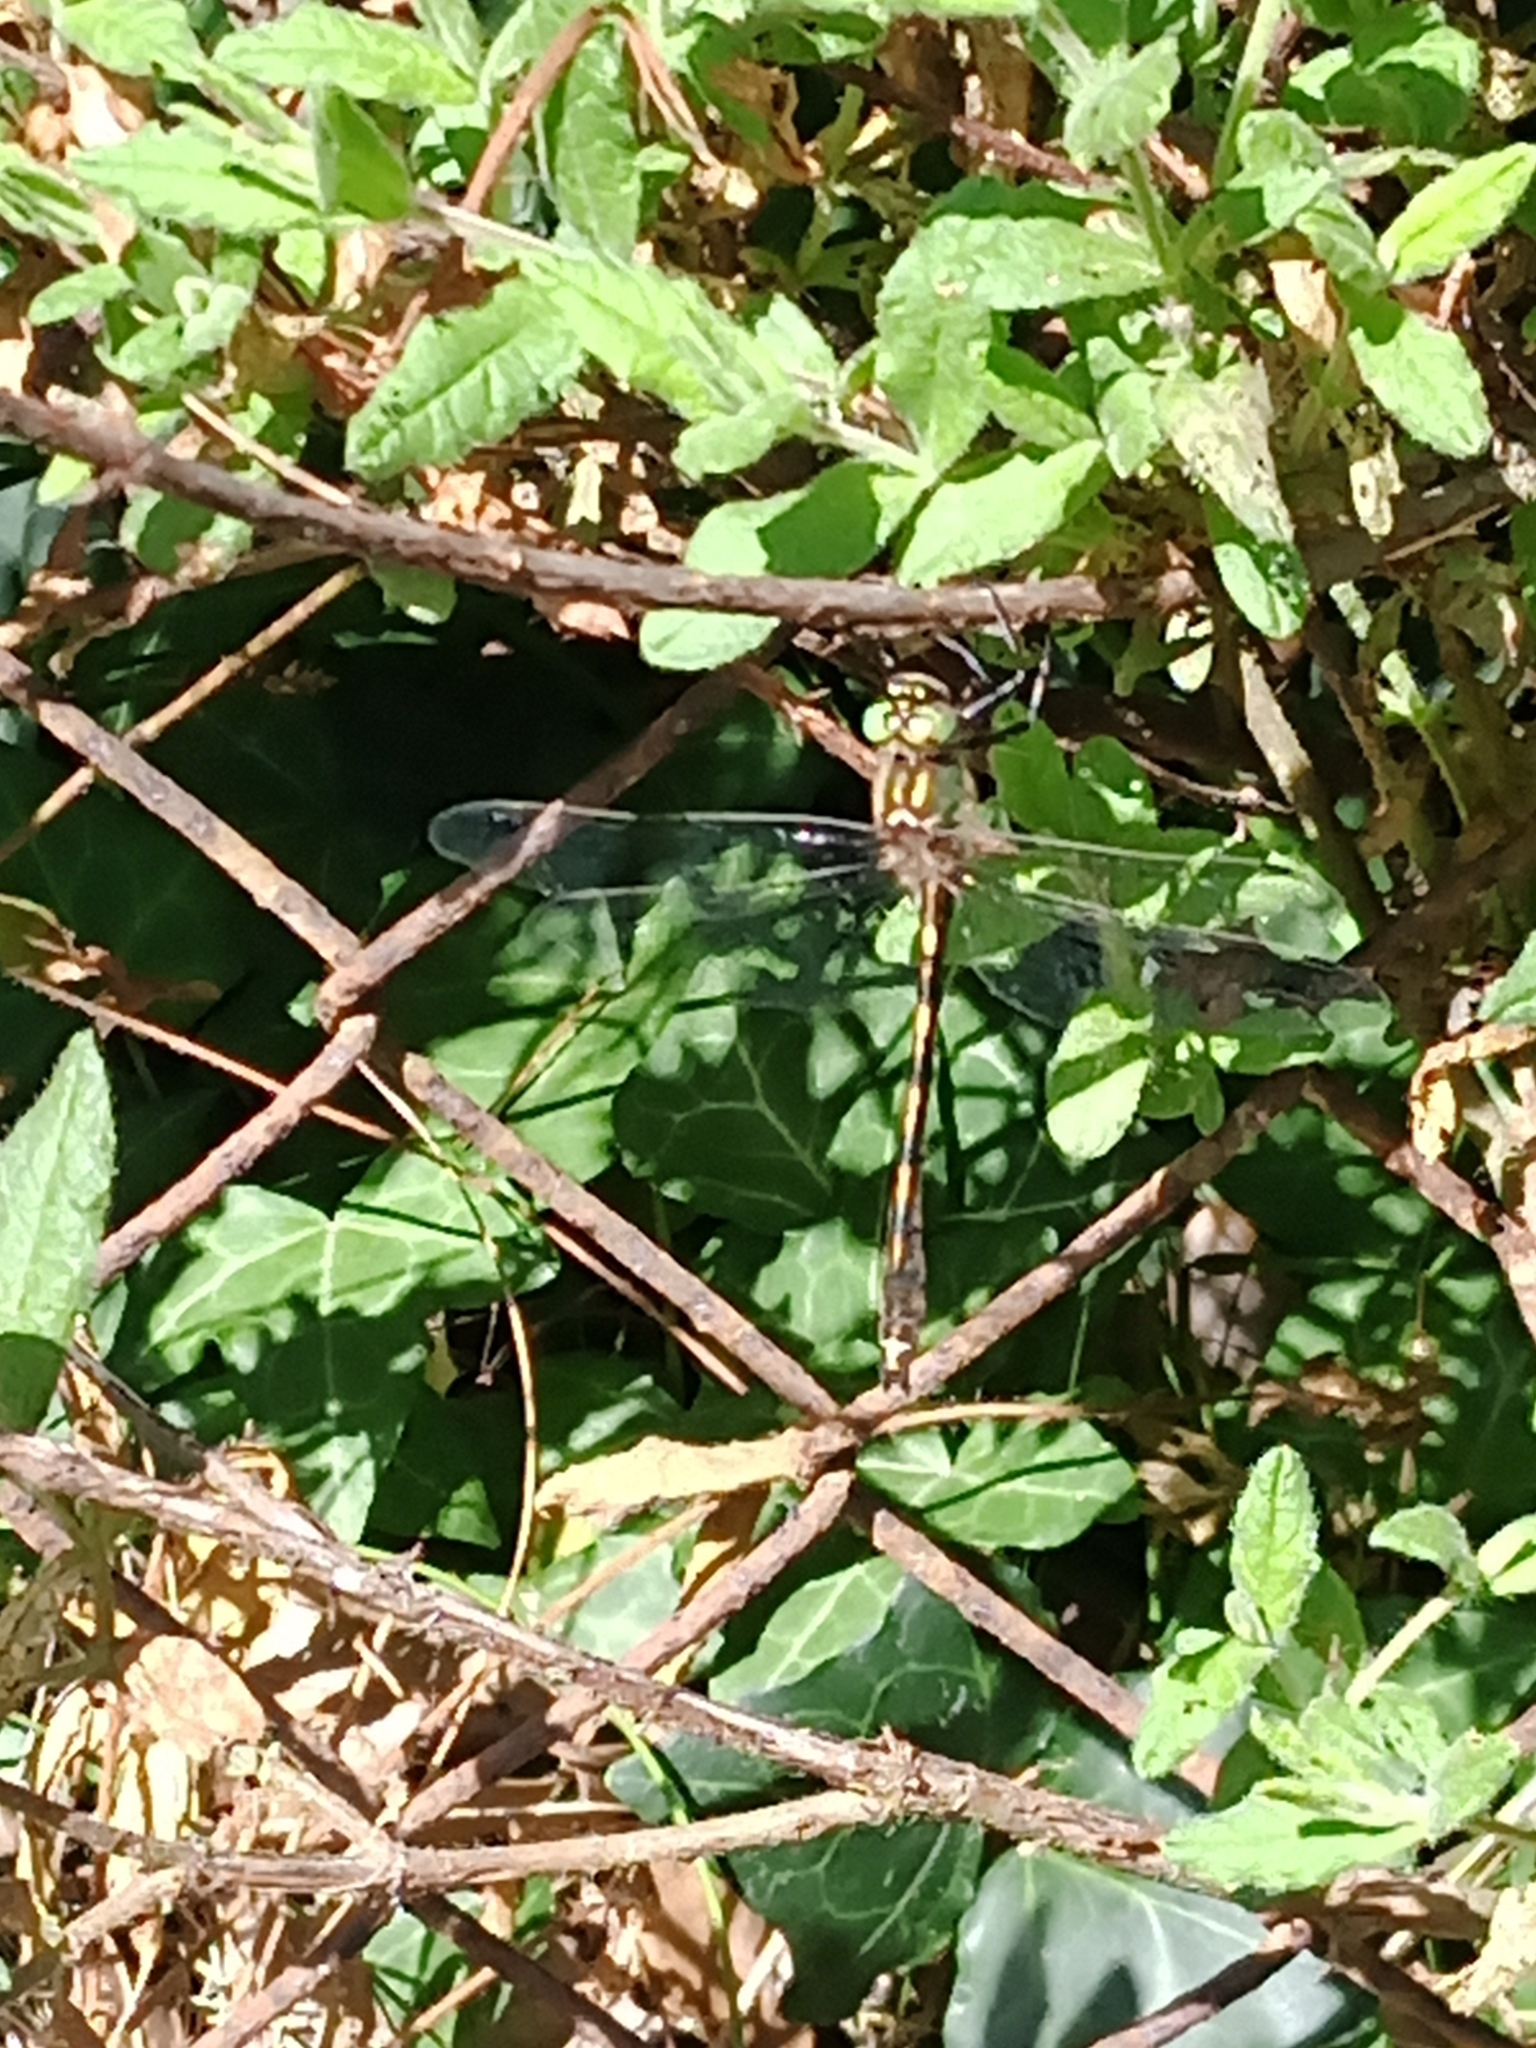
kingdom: Animalia
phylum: Arthropoda
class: Insecta
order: Odonata
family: Corduliidae
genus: Oxygastra
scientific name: Oxygastra curtisii
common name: Orange-spotted emerald
